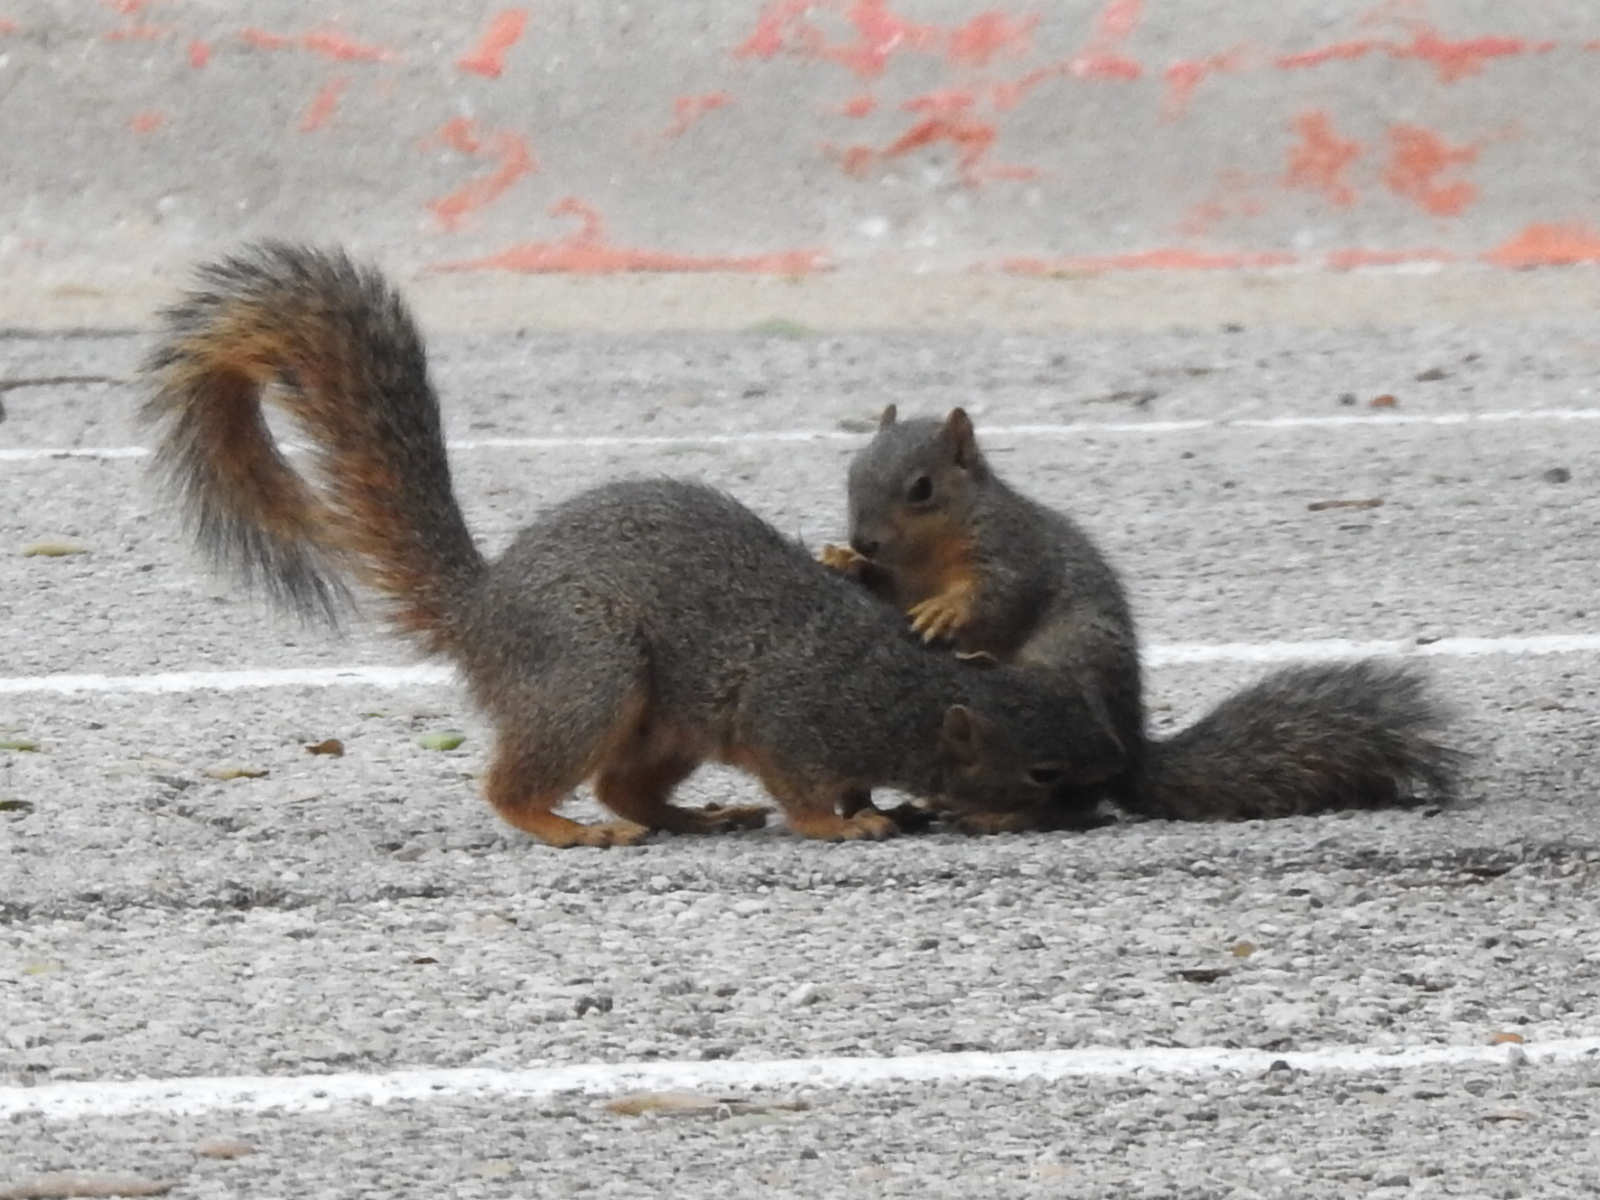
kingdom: Animalia
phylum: Chordata
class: Mammalia
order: Rodentia
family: Sciuridae
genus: Sciurus
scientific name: Sciurus niger
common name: Fox squirrel
